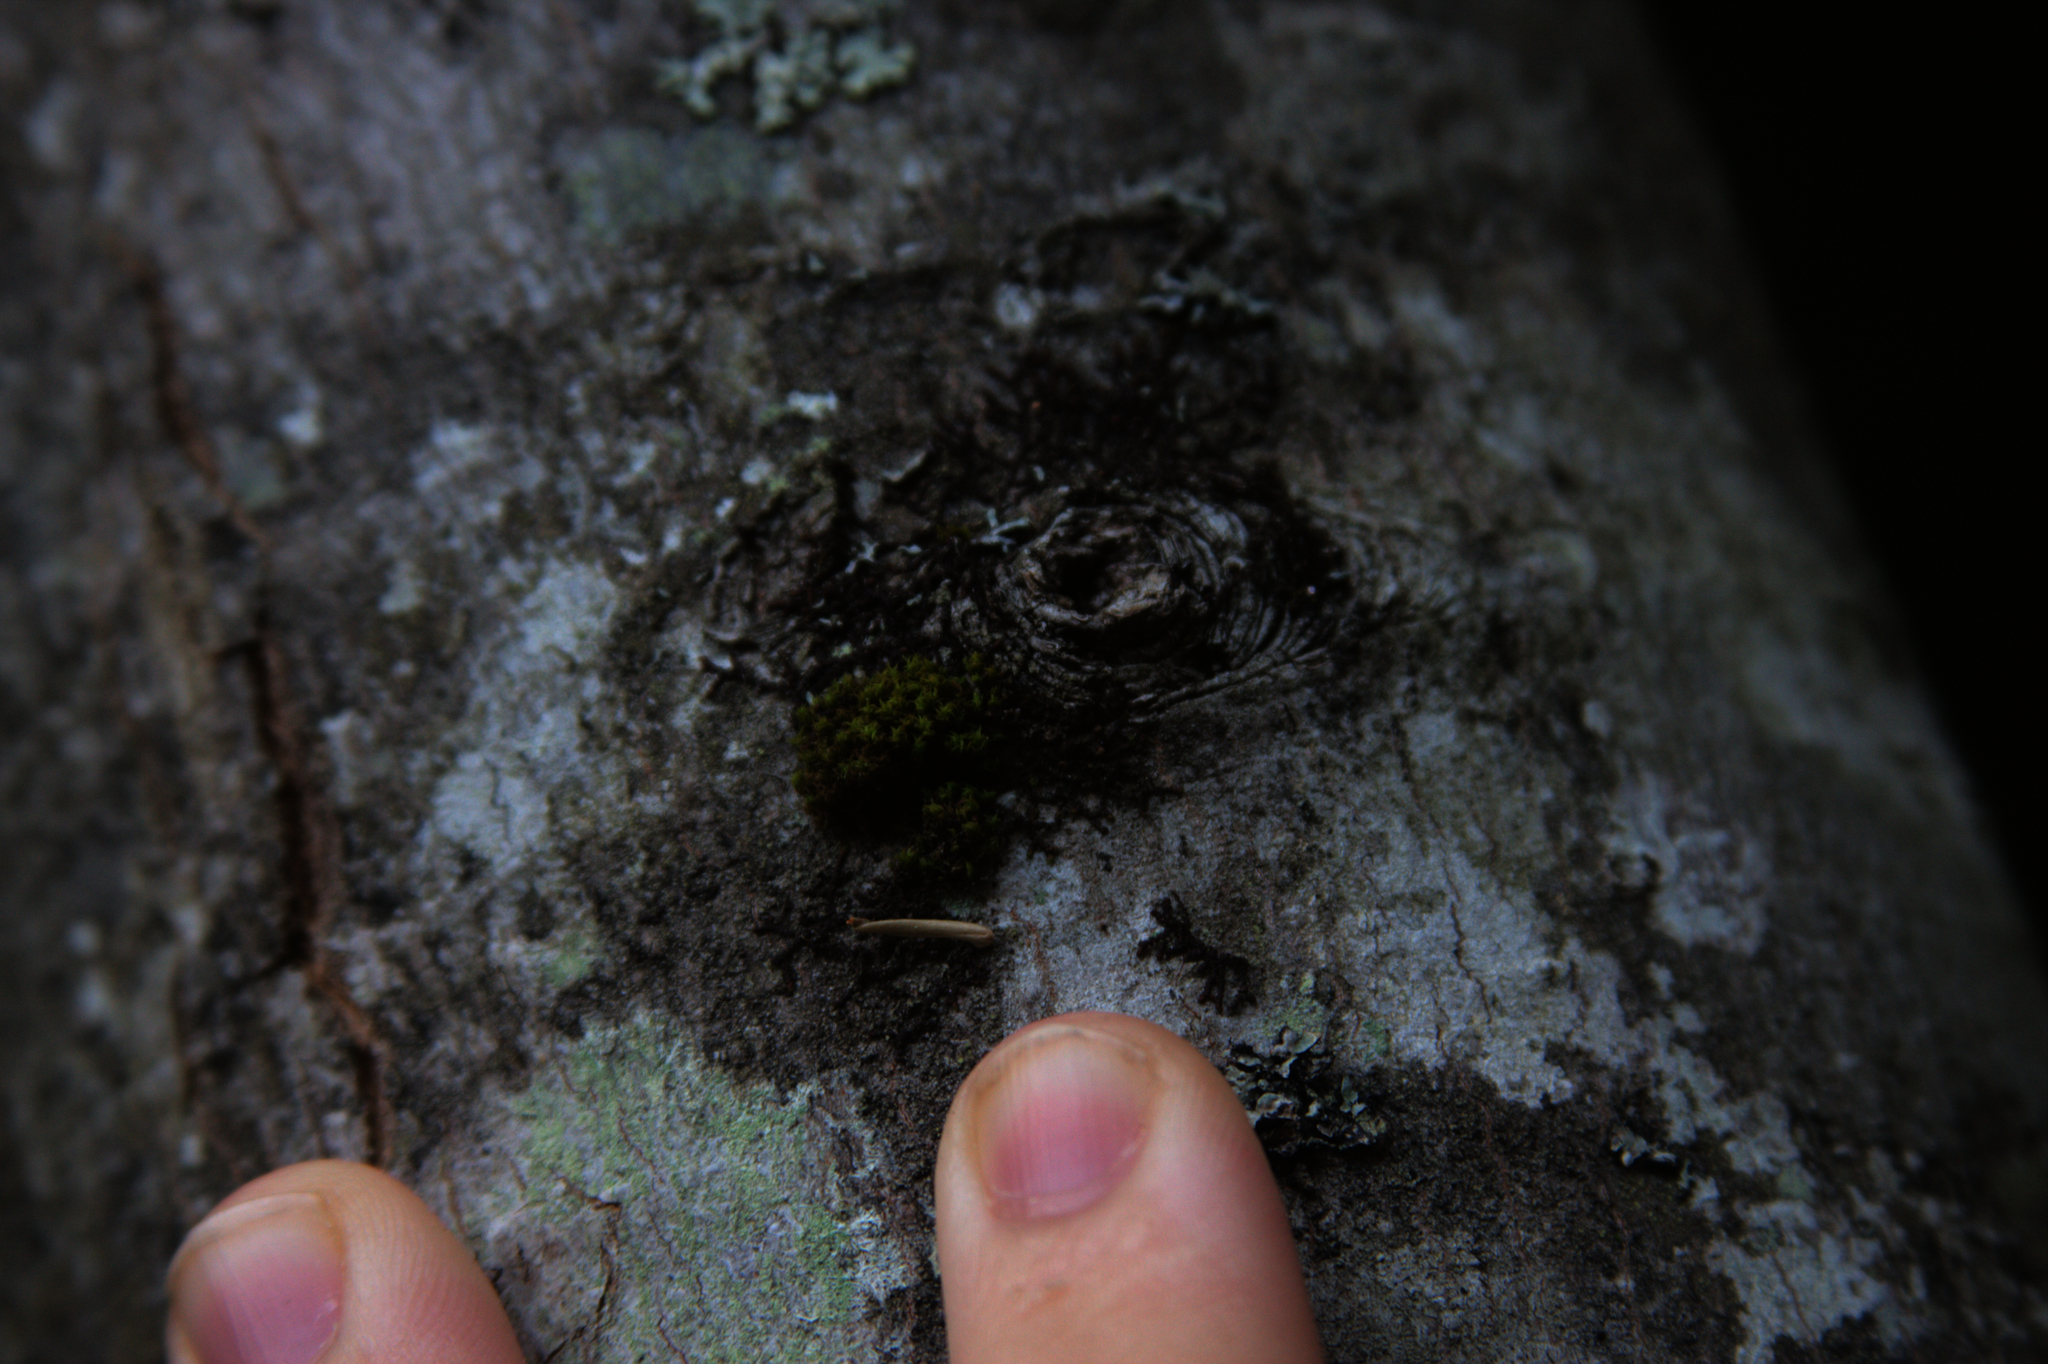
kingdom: Plantae
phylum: Bryophyta
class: Bryopsida
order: Orthotrichales
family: Orthotrichaceae
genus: Ulota
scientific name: Ulota crispa
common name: Crisped pincushion moss
